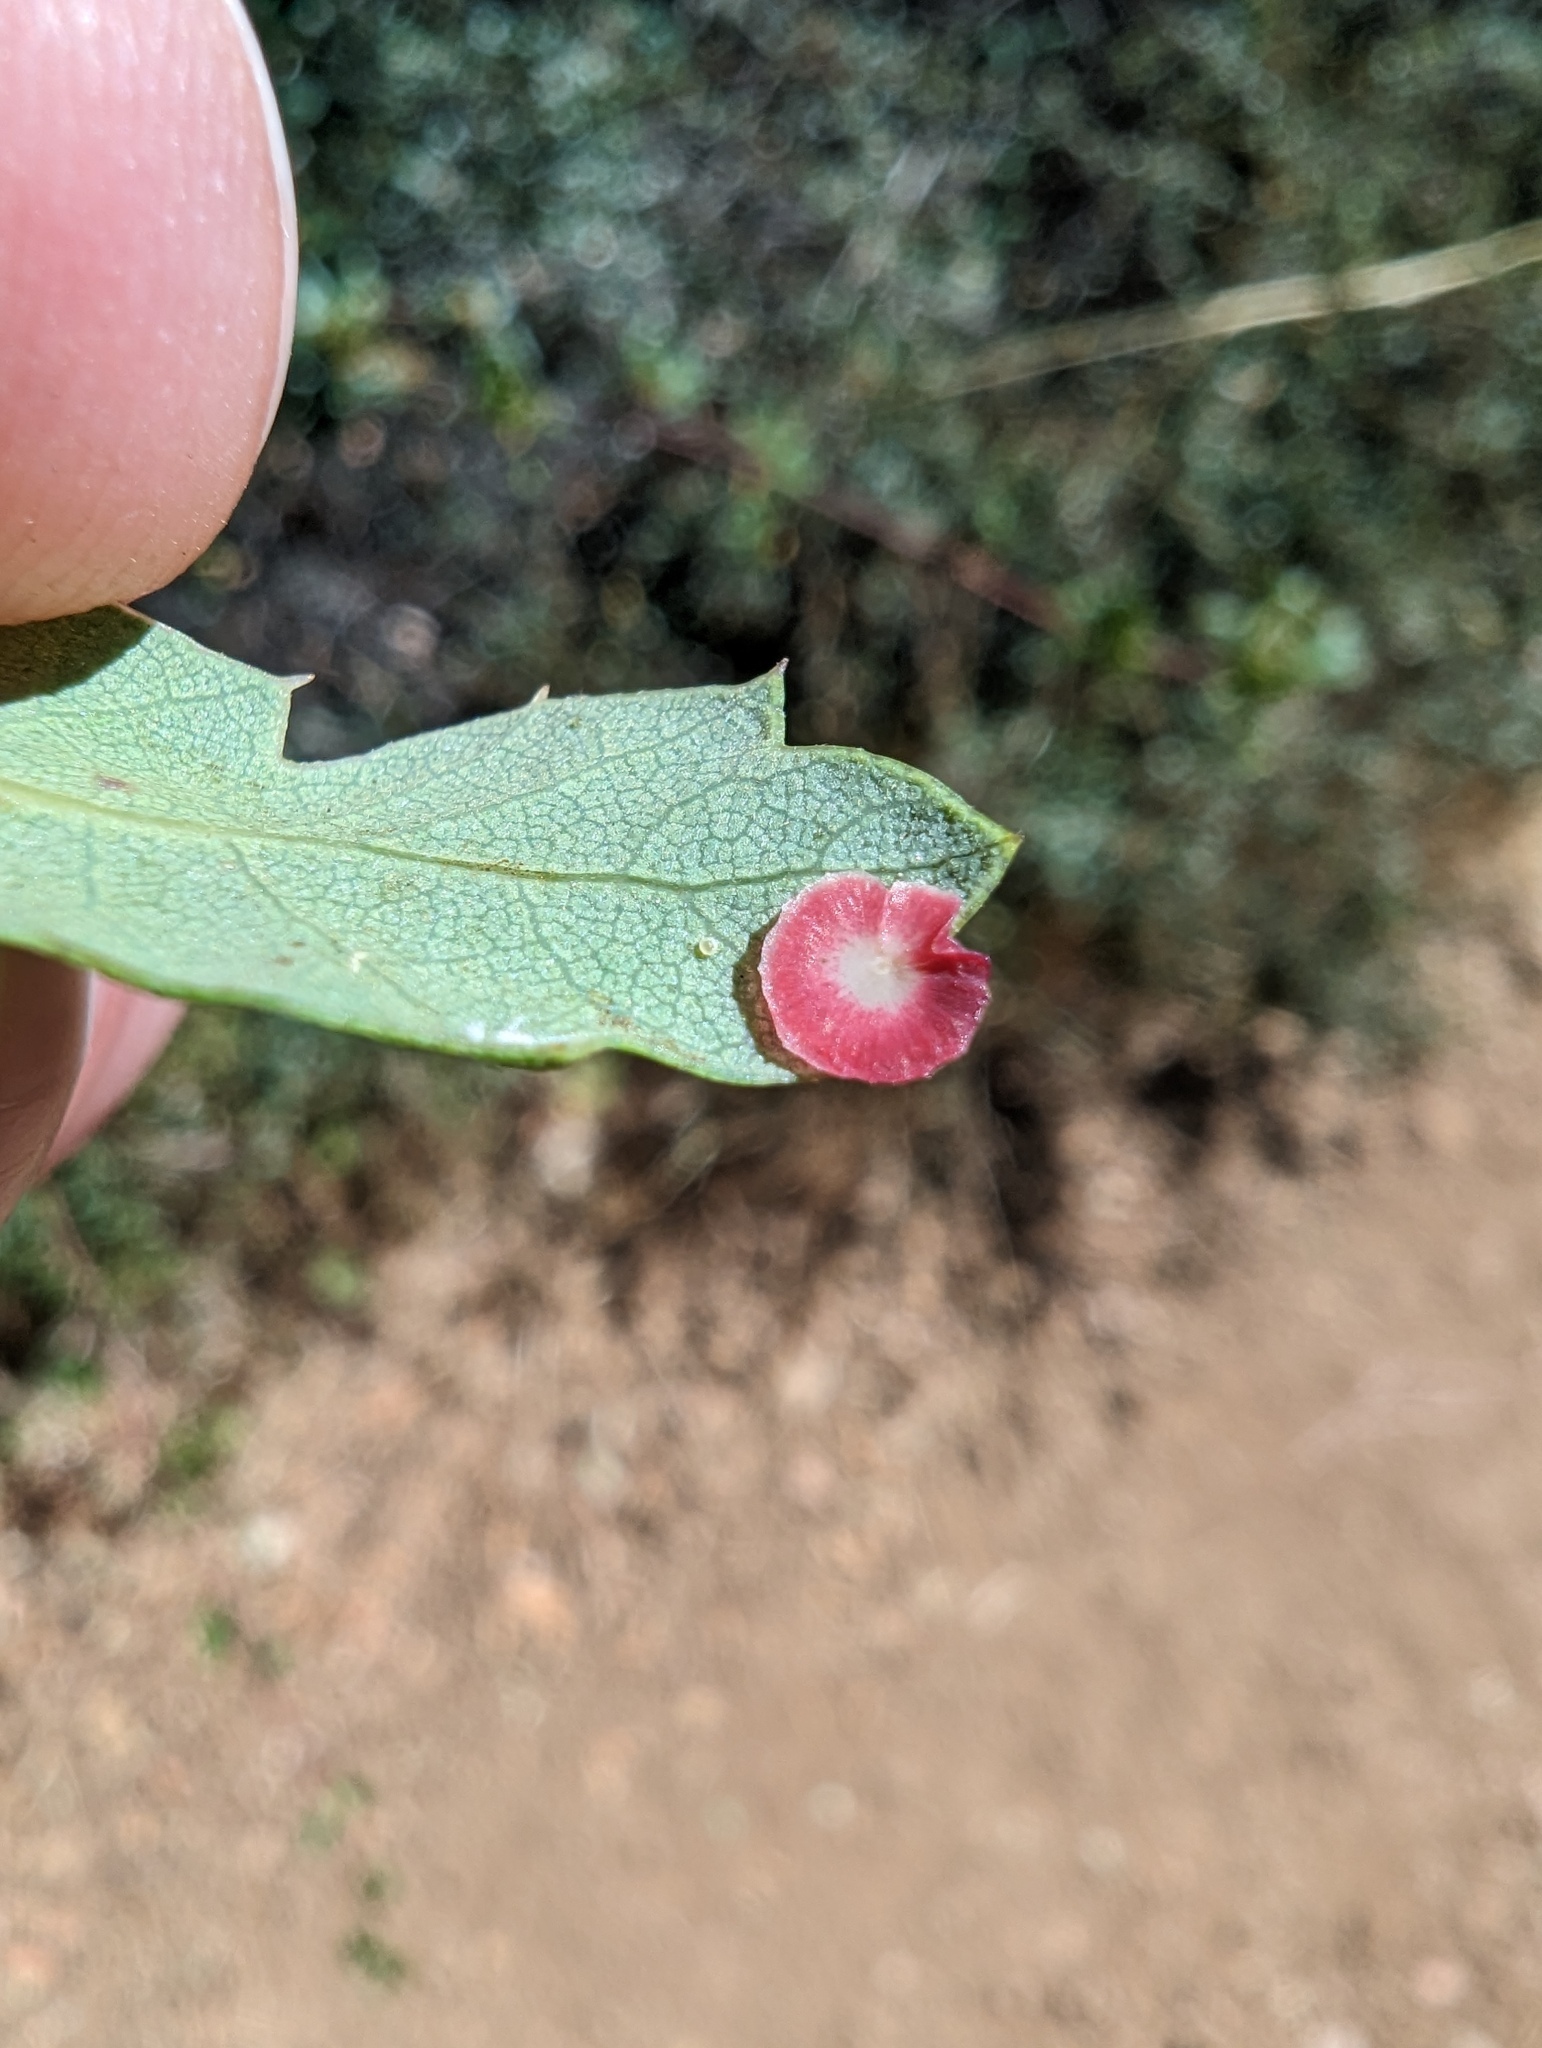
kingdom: Animalia
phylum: Arthropoda
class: Insecta
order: Hymenoptera
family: Cynipidae
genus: Andricus
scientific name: Andricus
